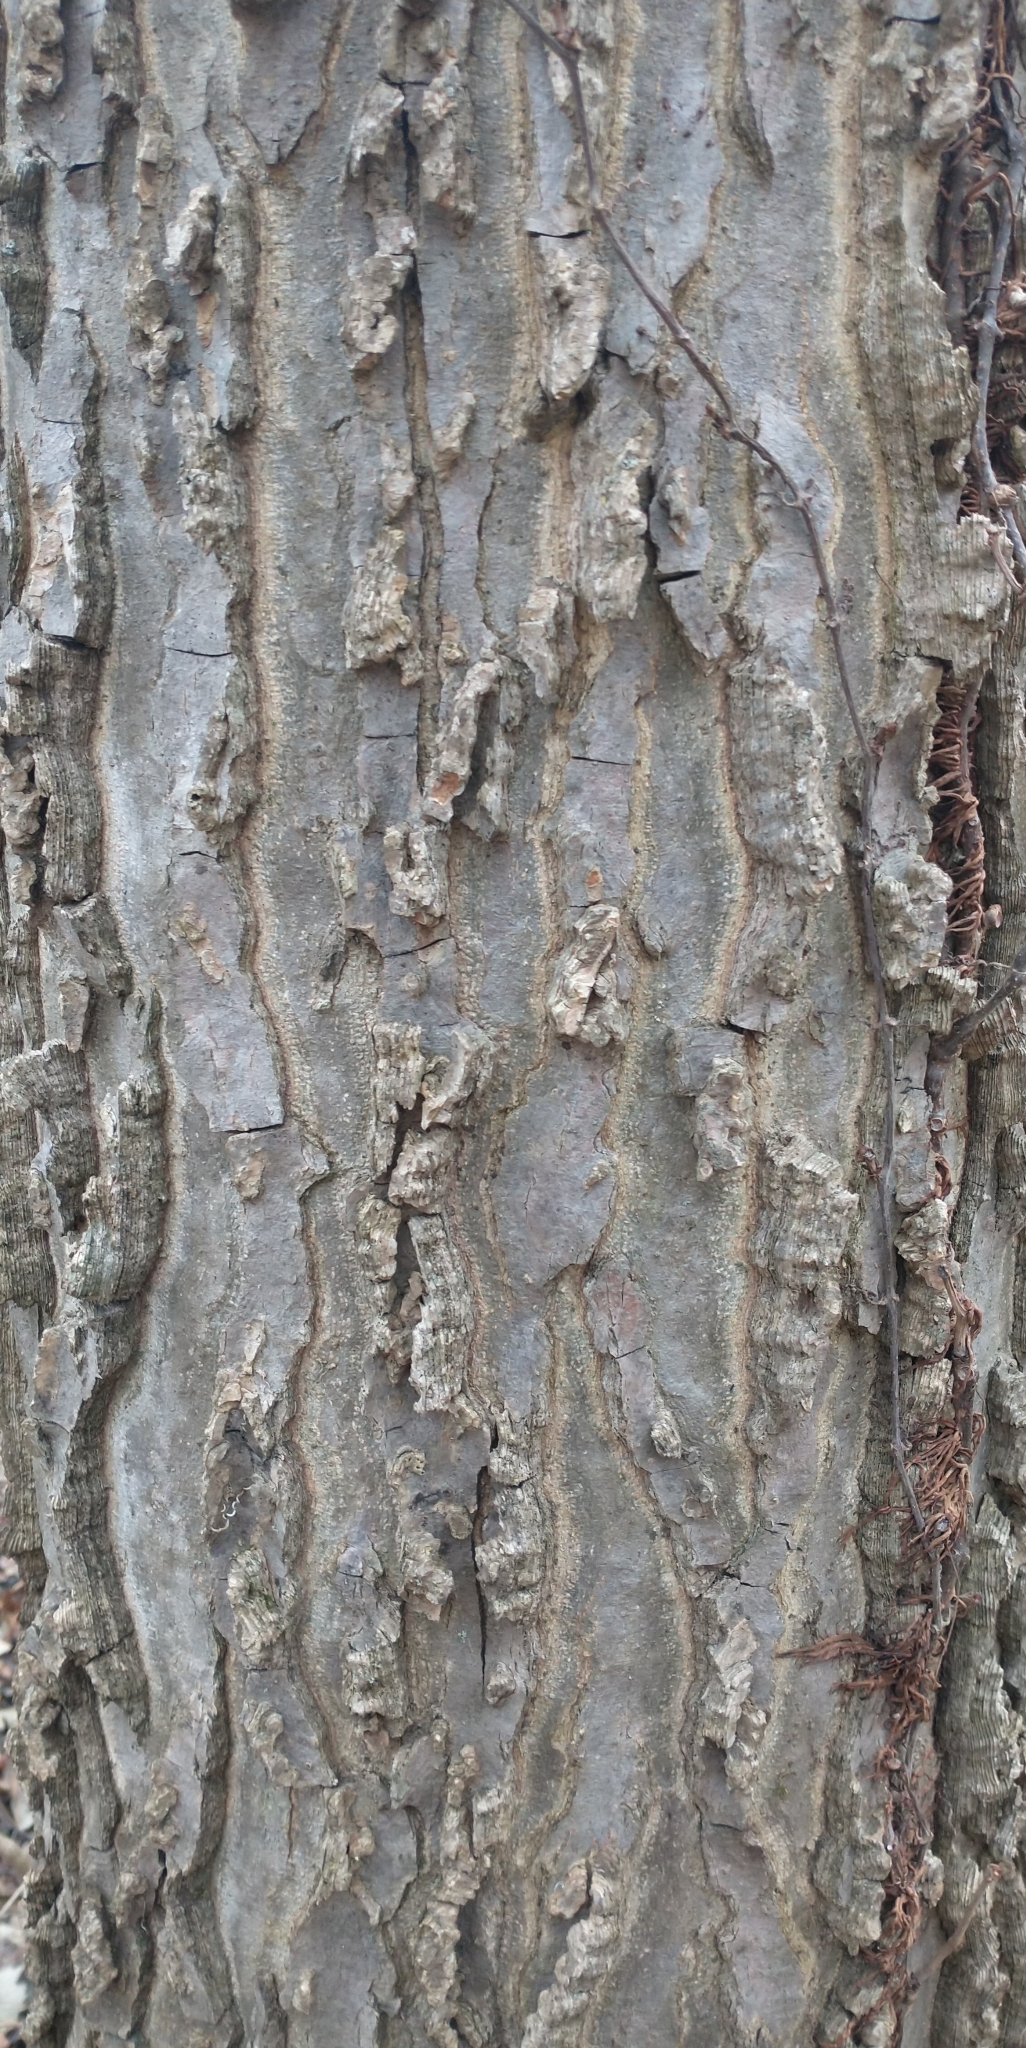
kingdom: Plantae
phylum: Tracheophyta
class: Magnoliopsida
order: Rosales
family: Cannabaceae
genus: Celtis
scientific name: Celtis occidentalis
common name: Common hackberry
